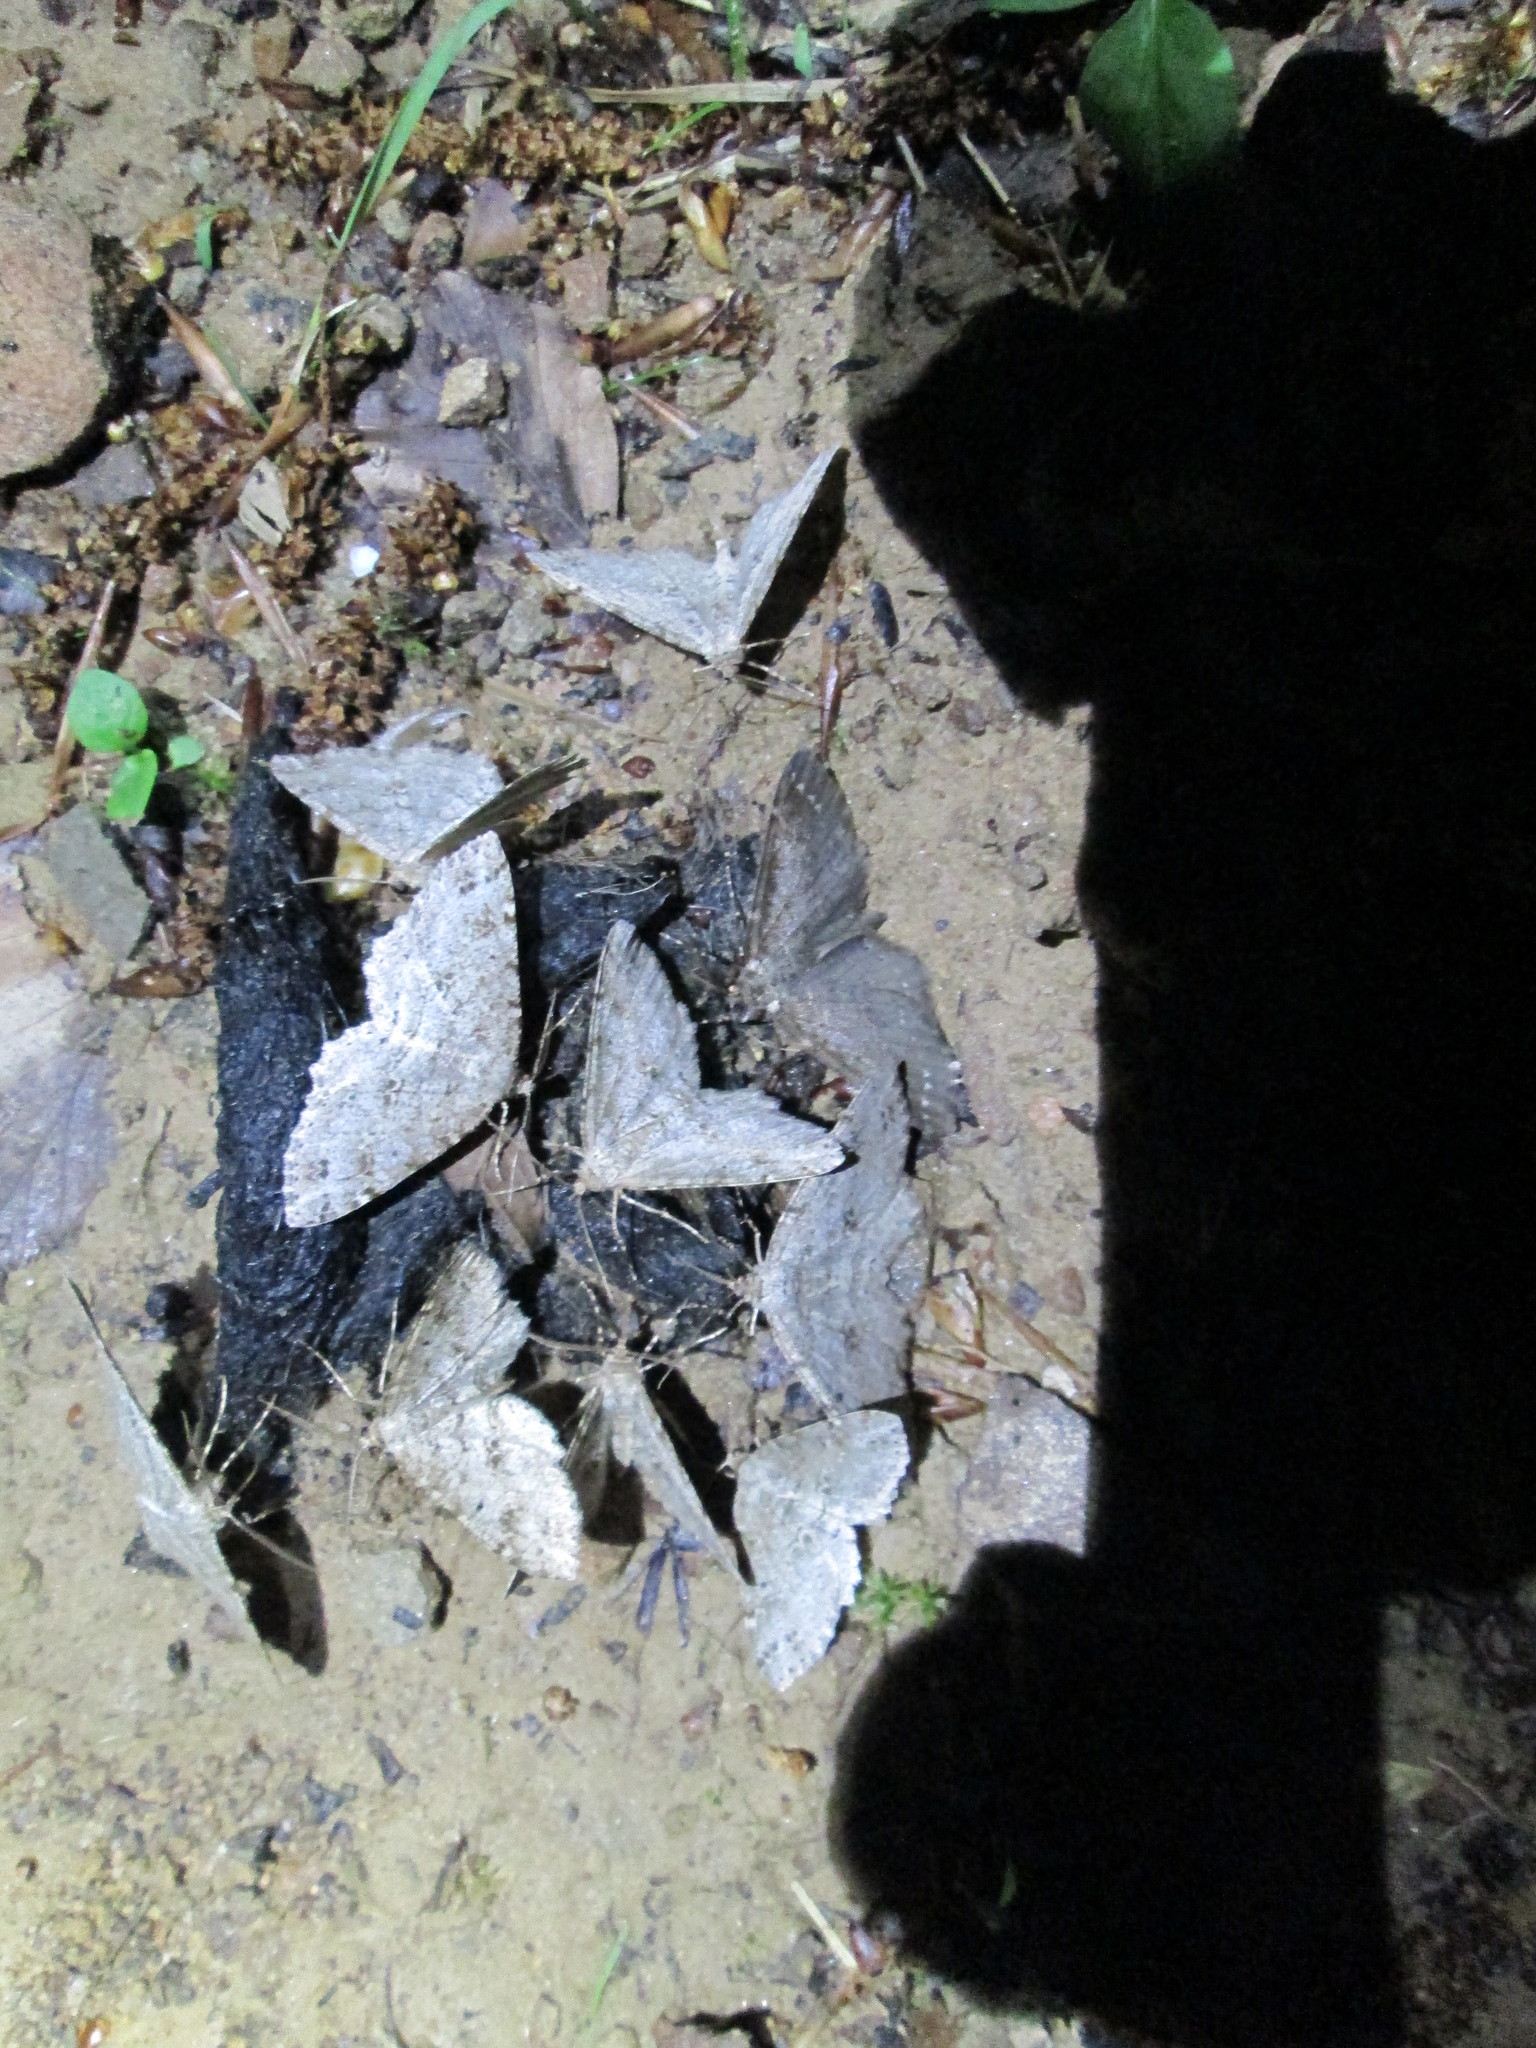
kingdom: Animalia
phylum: Arthropoda
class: Insecta
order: Lepidoptera
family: Geometridae
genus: Melanolophia
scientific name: Melanolophia canadaria
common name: Canadian melanolophia
